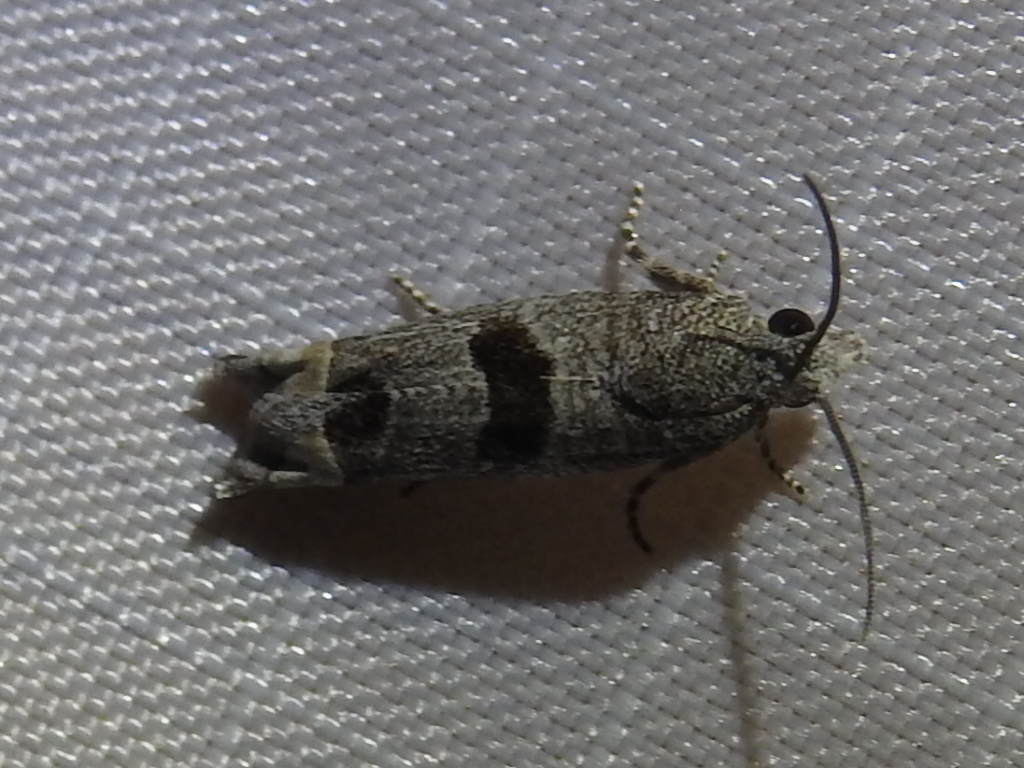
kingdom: Animalia
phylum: Arthropoda
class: Insecta
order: Lepidoptera
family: Tortricidae
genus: Pelochrista
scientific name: Pelochrista persolita
